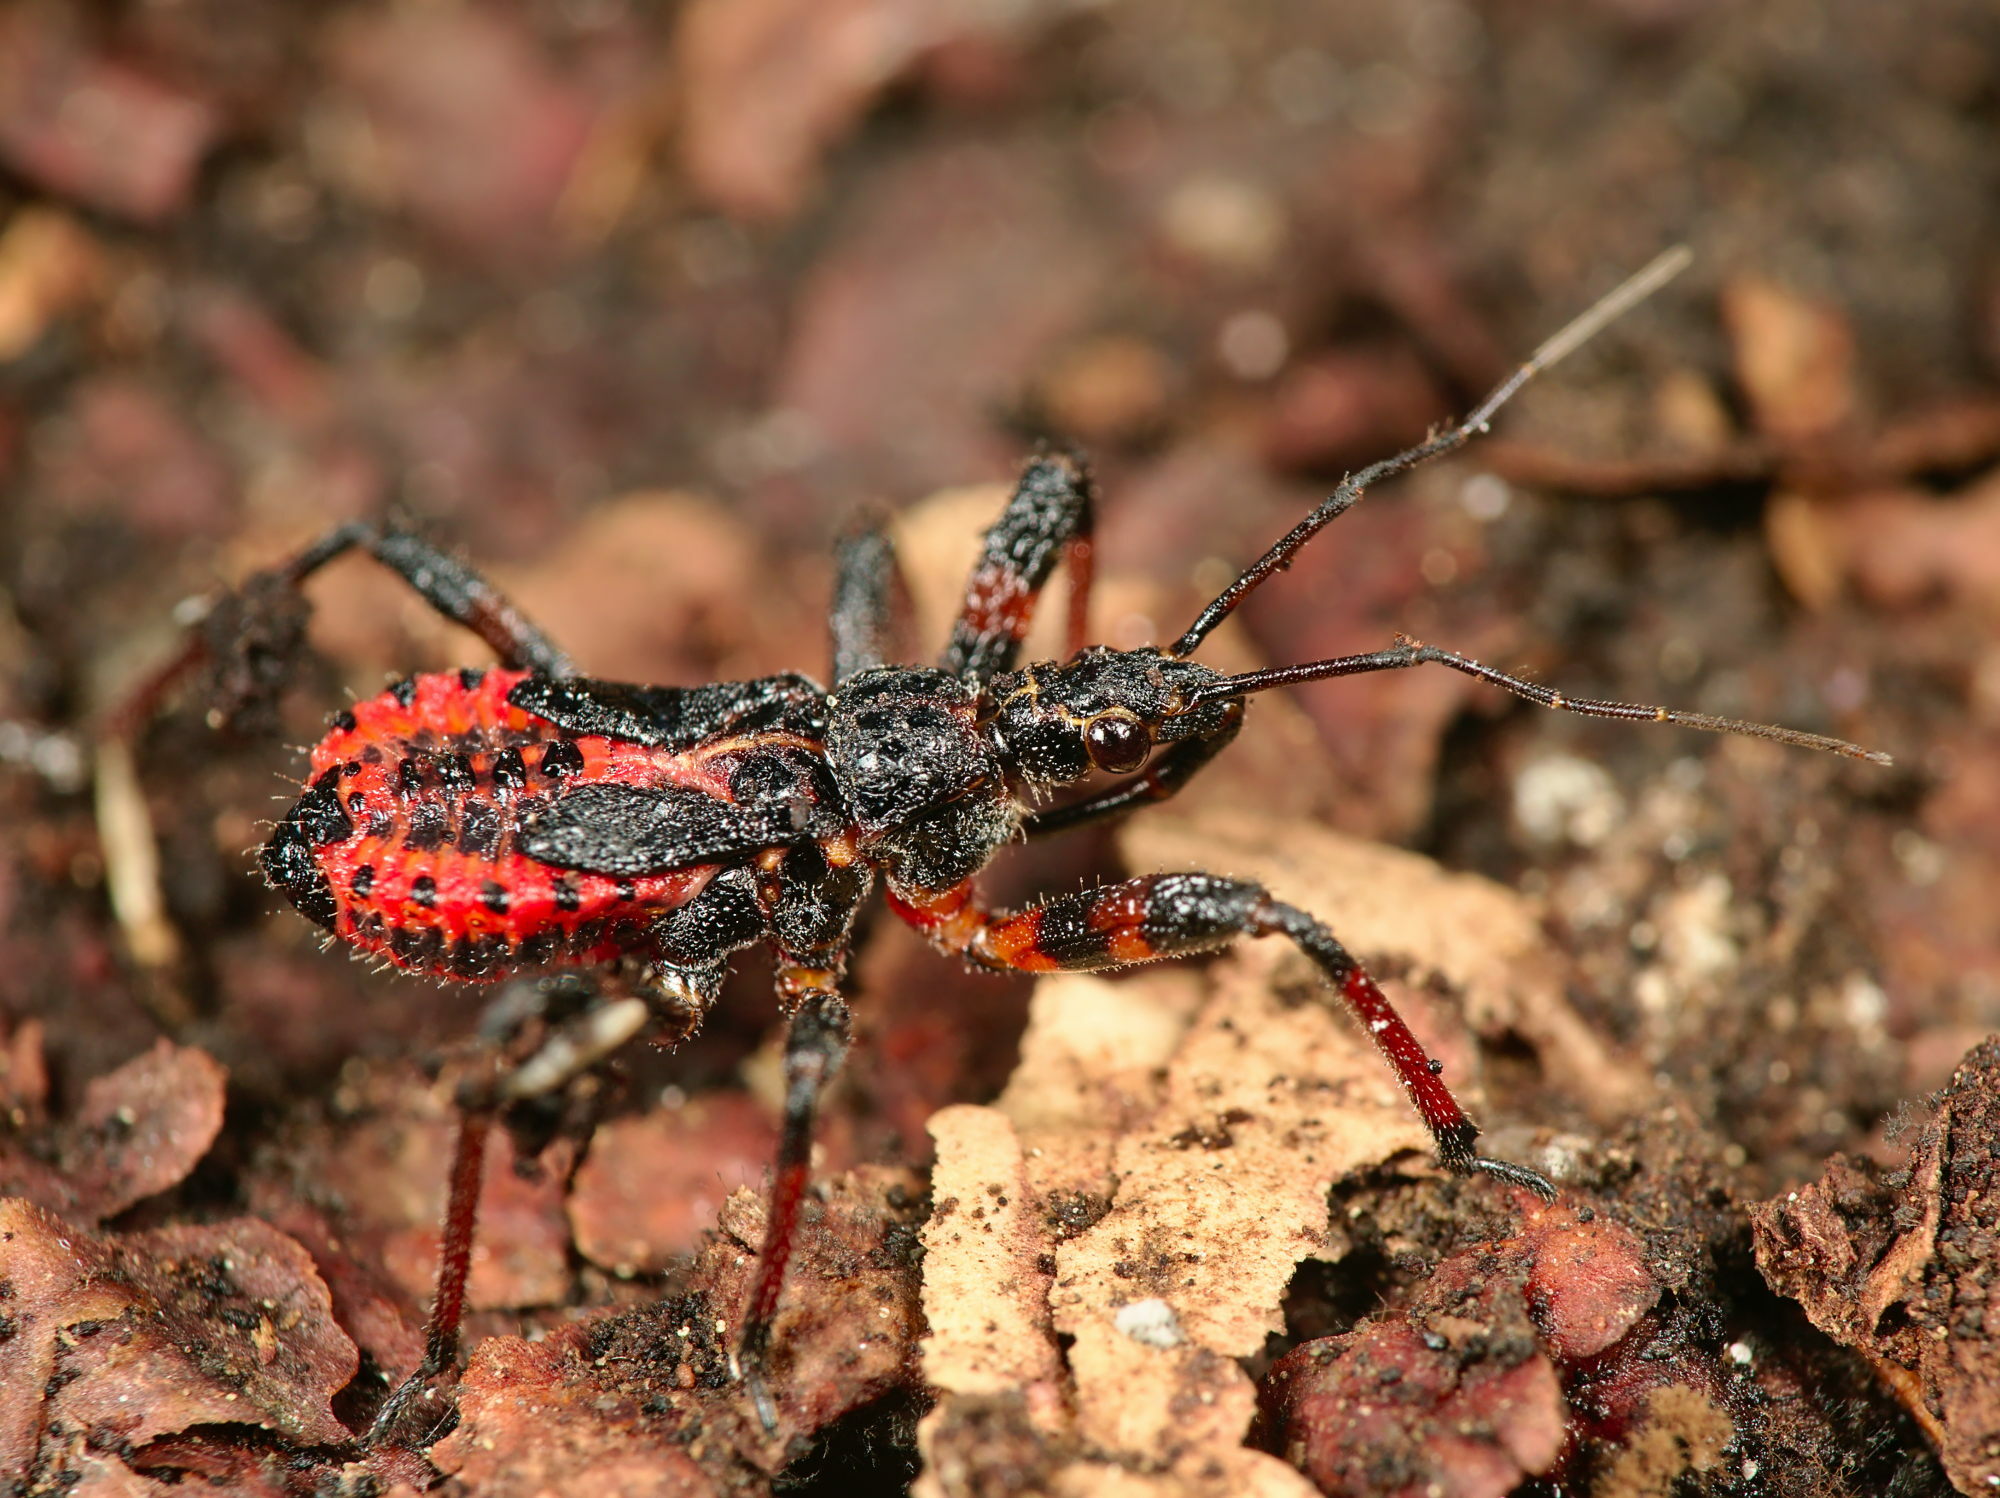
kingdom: Animalia
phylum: Arthropoda
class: Insecta
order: Hemiptera
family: Reduviidae
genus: Rhynocoris
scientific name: Rhynocoris annulatus
